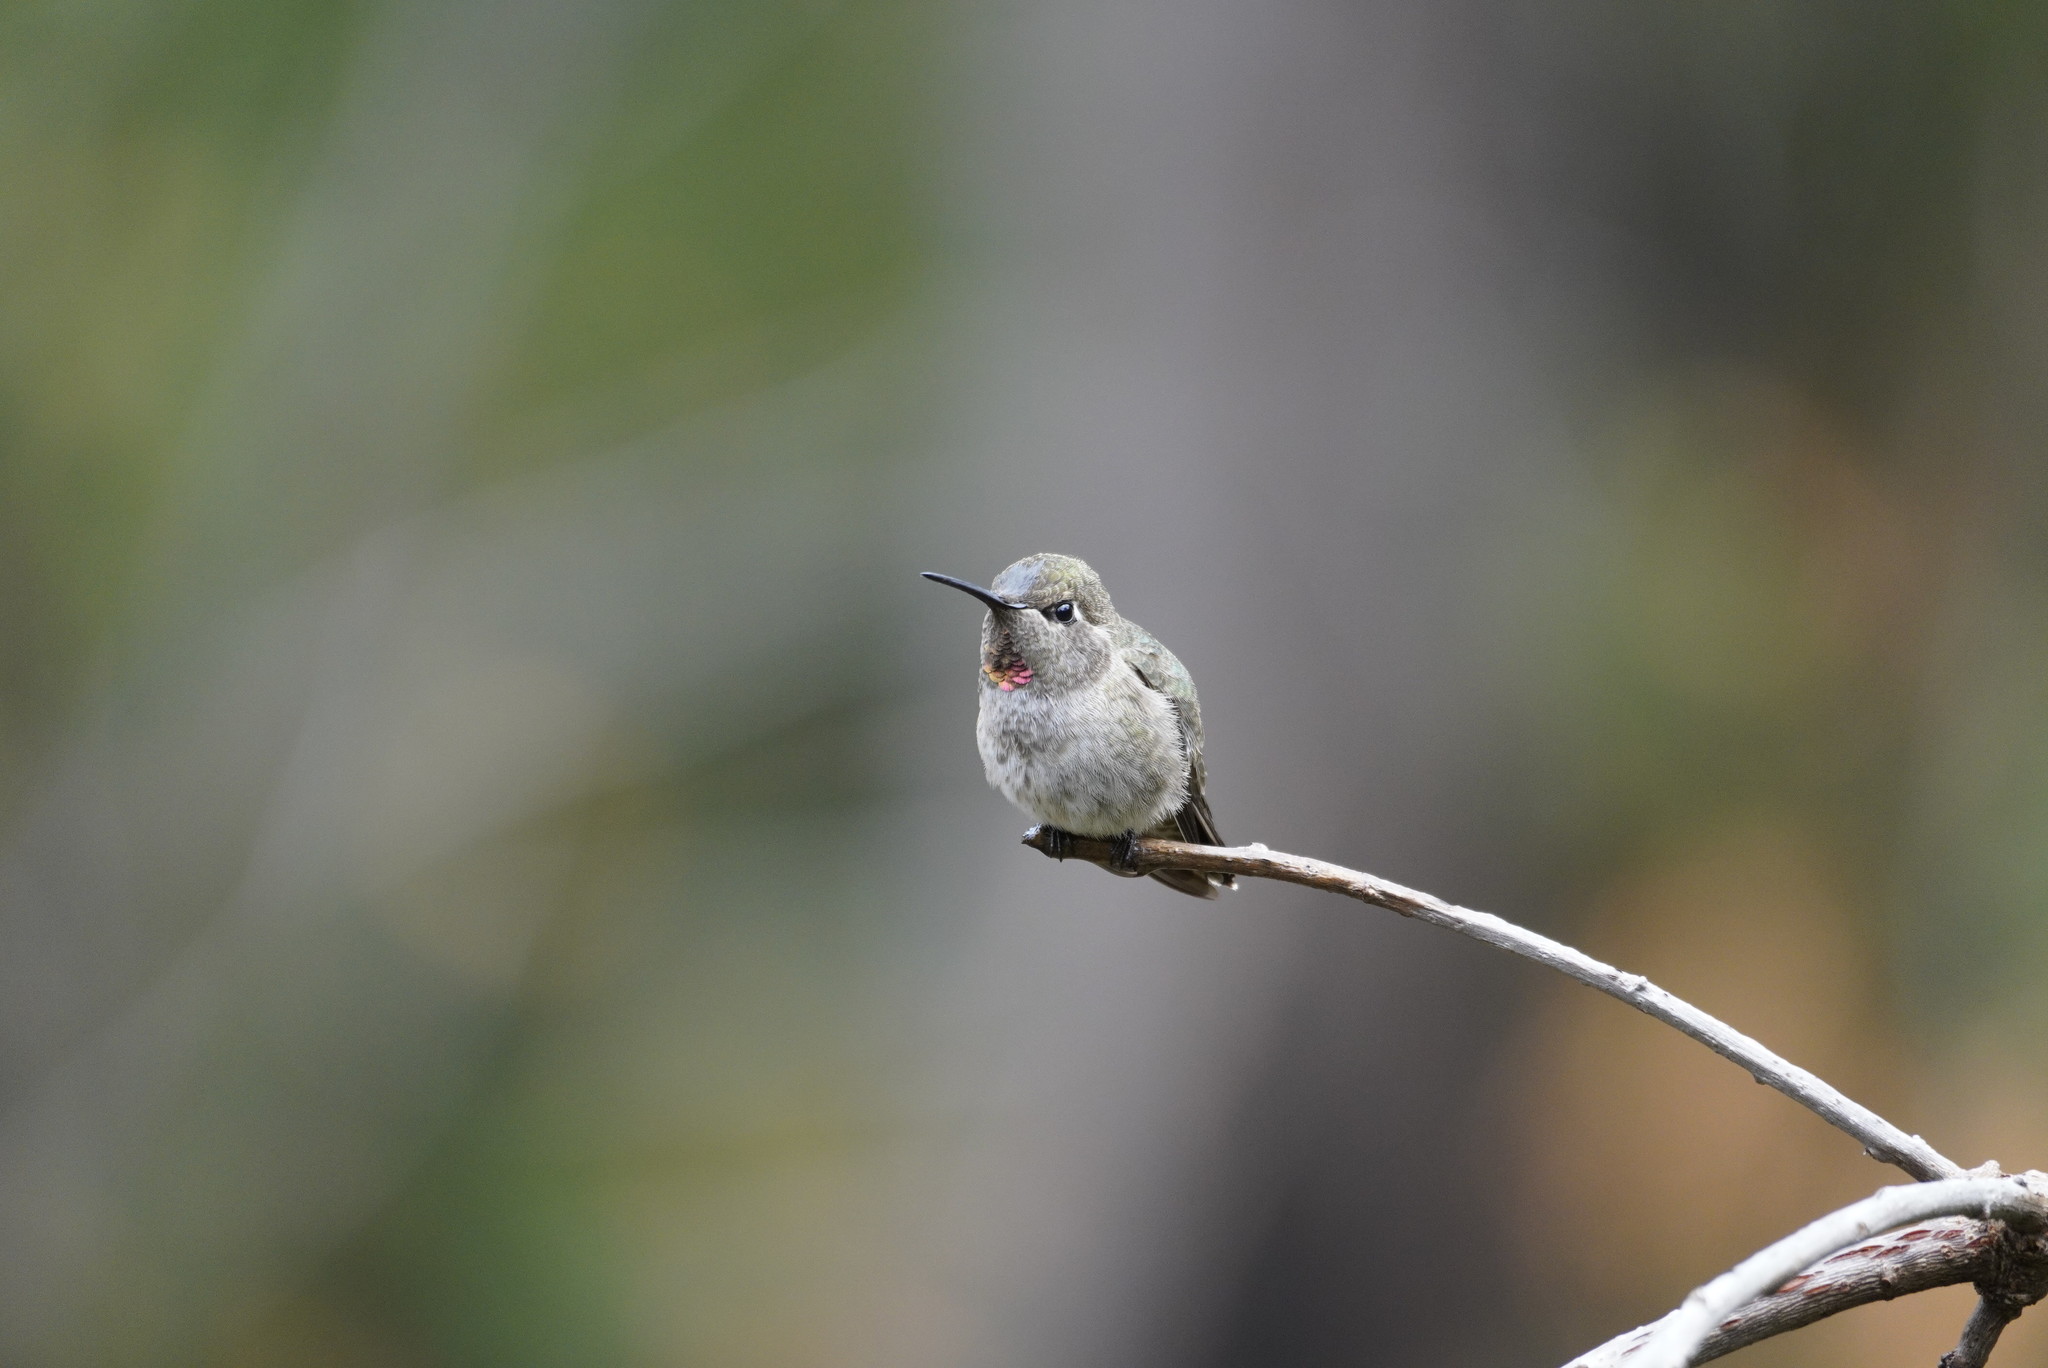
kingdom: Animalia
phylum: Chordata
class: Aves
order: Apodiformes
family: Trochilidae
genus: Calypte
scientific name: Calypte anna
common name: Anna's hummingbird
